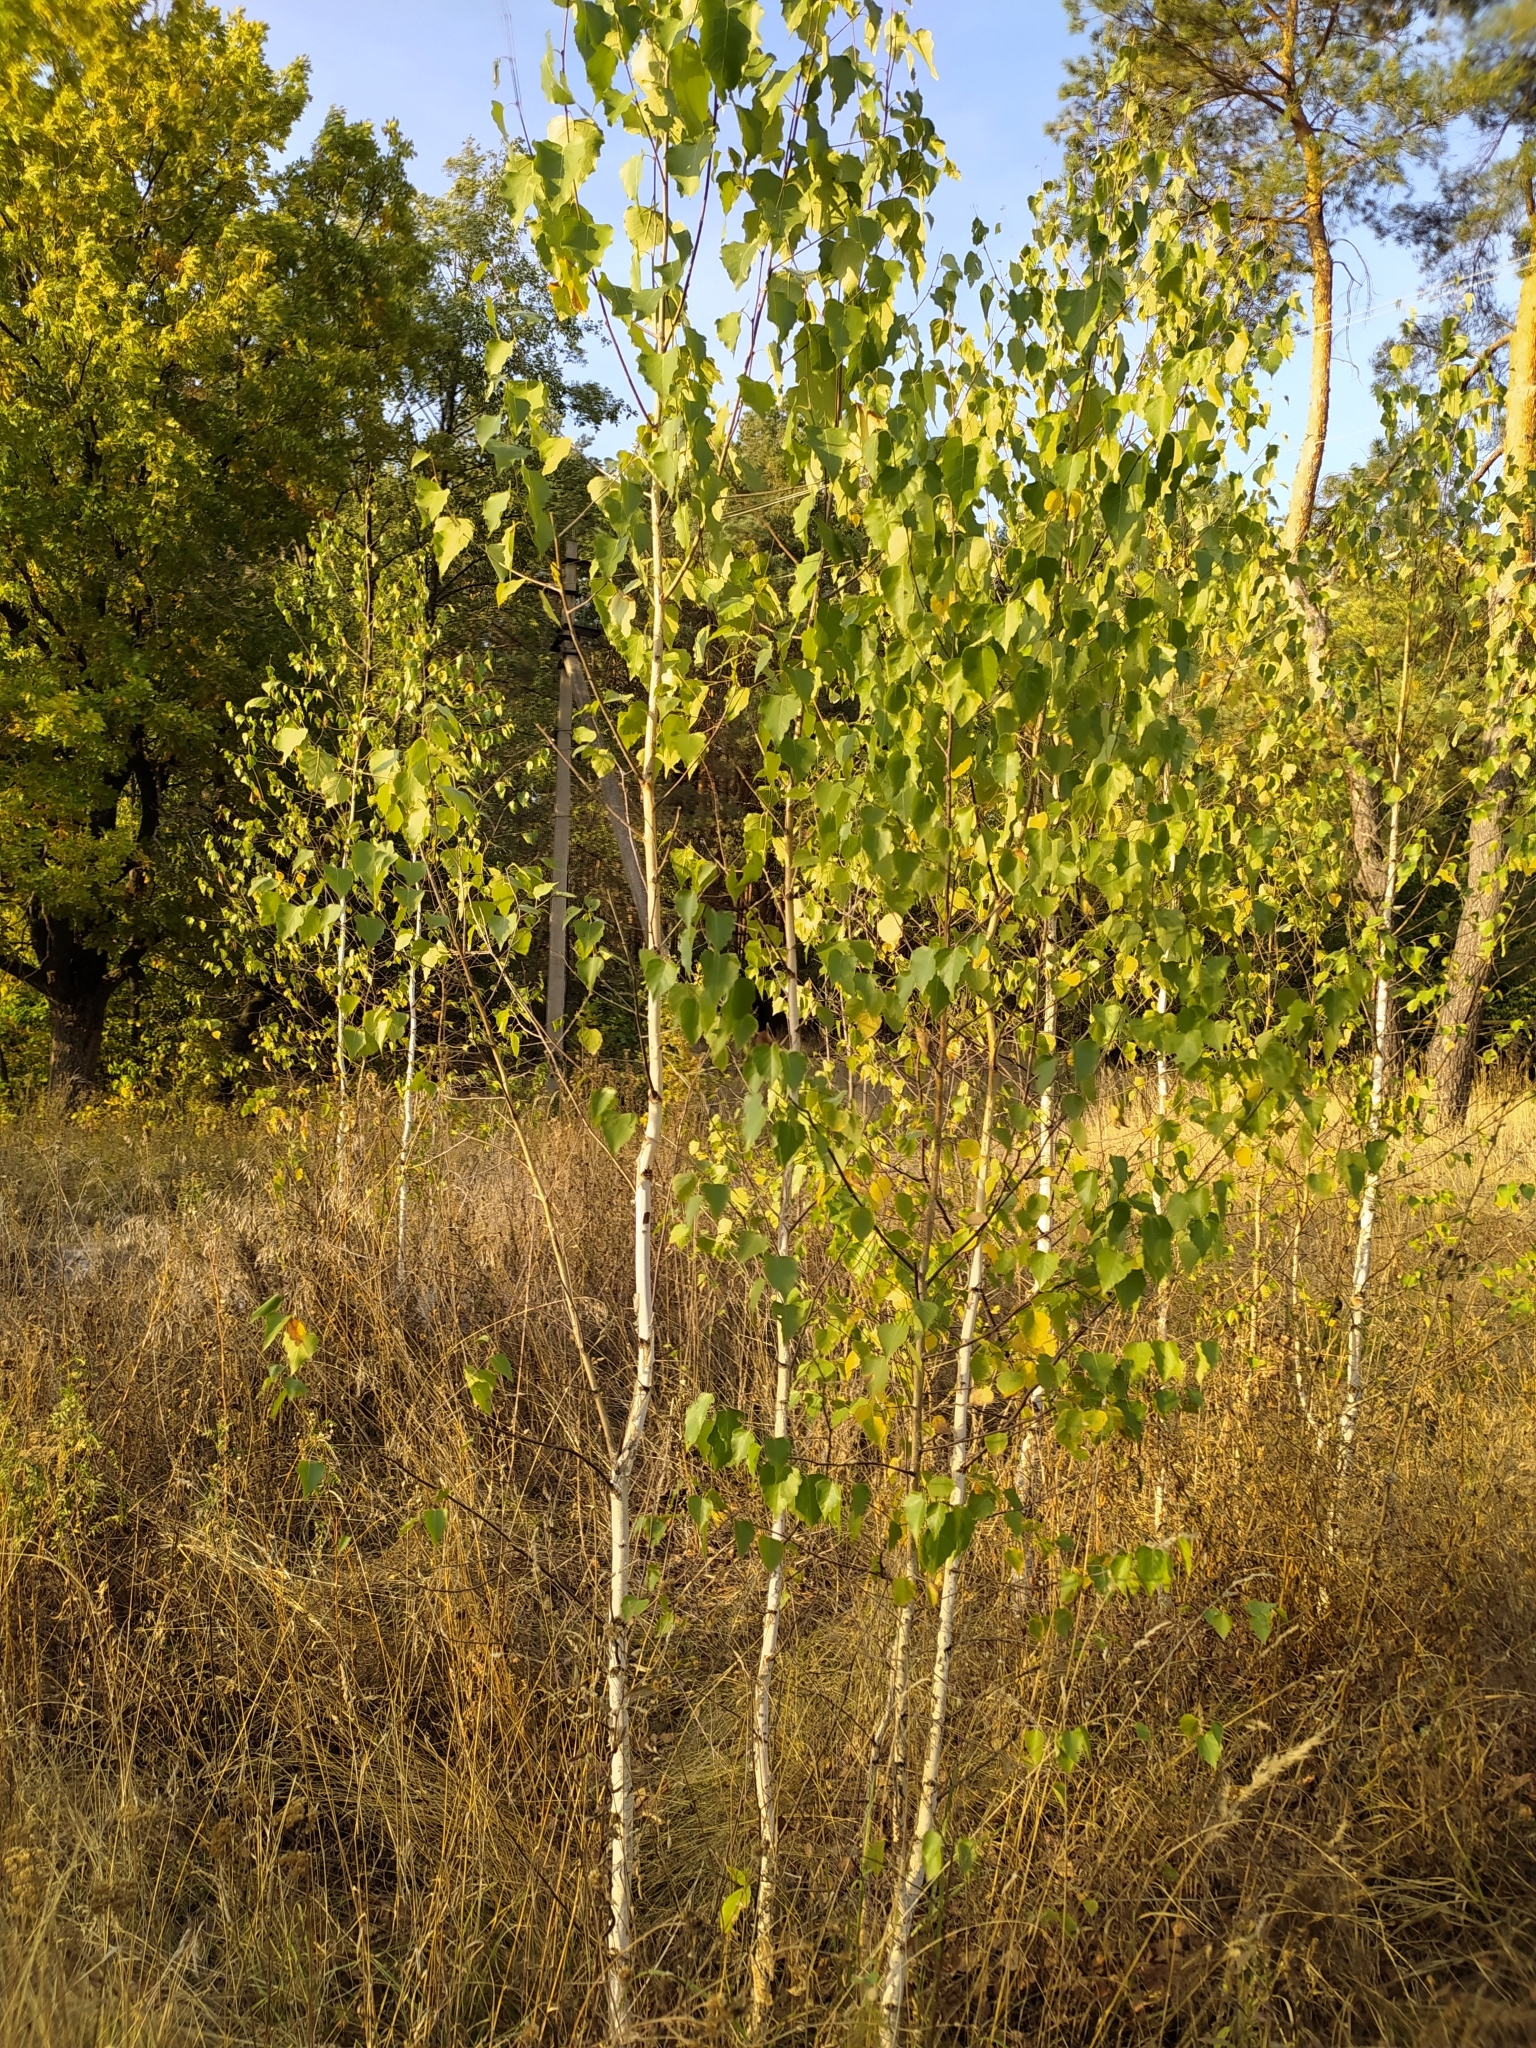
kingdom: Plantae
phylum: Tracheophyta
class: Magnoliopsida
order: Fagales
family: Betulaceae
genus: Betula
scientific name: Betula pendula
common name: Silver birch
